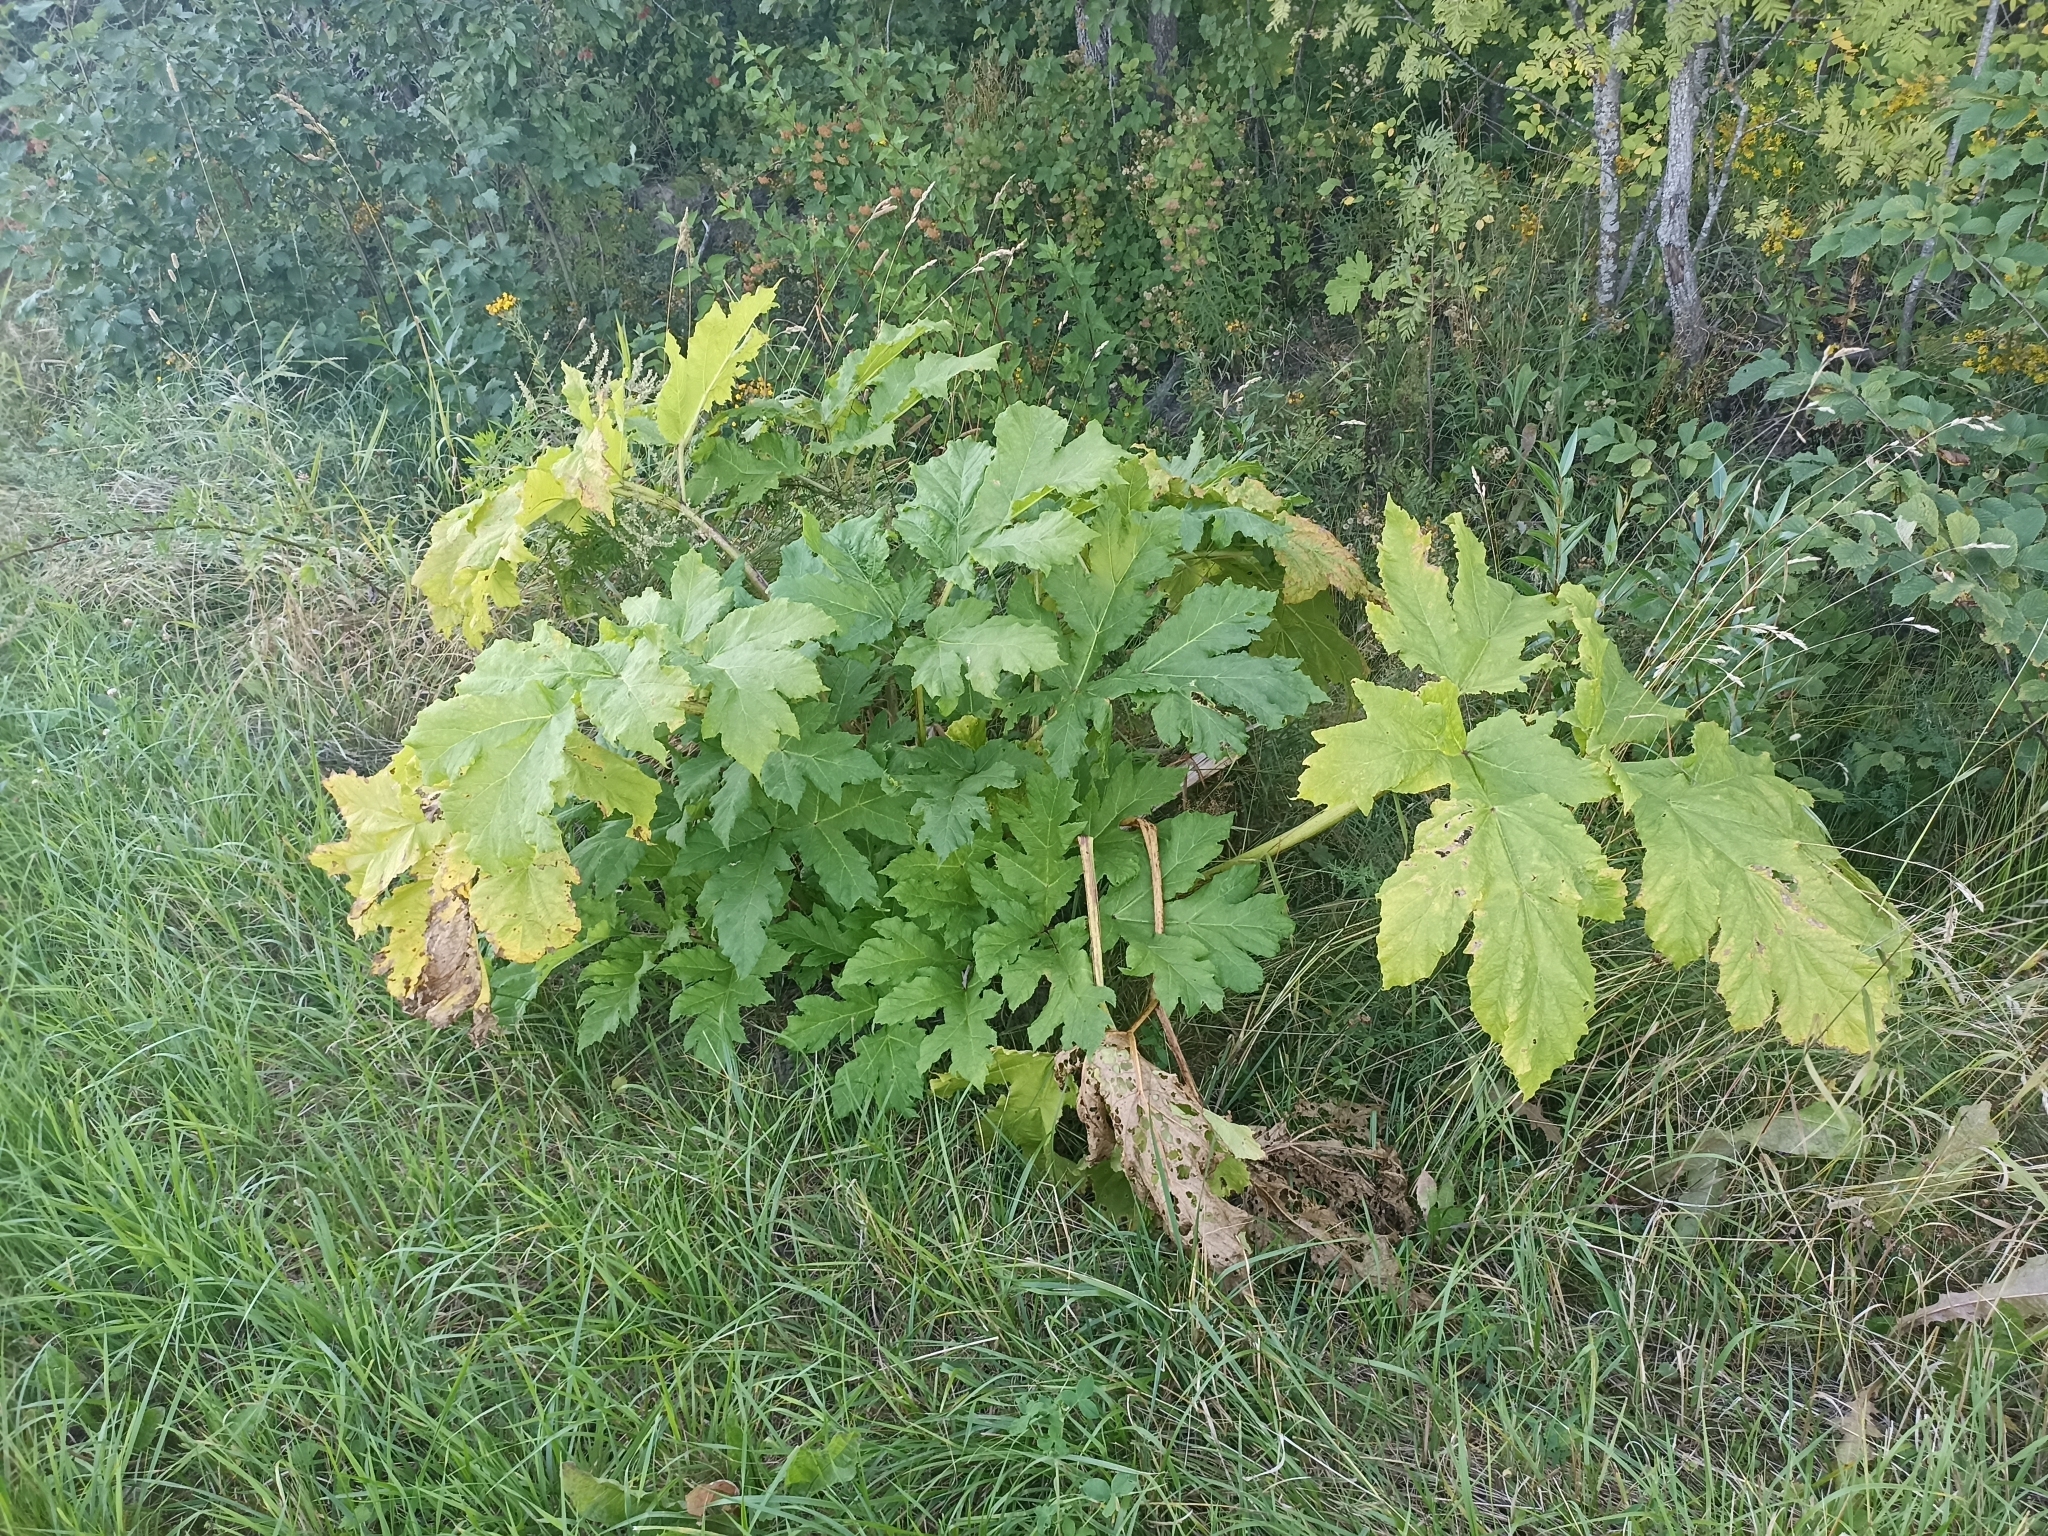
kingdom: Plantae
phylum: Tracheophyta
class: Magnoliopsida
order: Apiales
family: Apiaceae
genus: Heracleum
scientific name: Heracleum sosnowskyi
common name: Sosnowsky's hogweed
